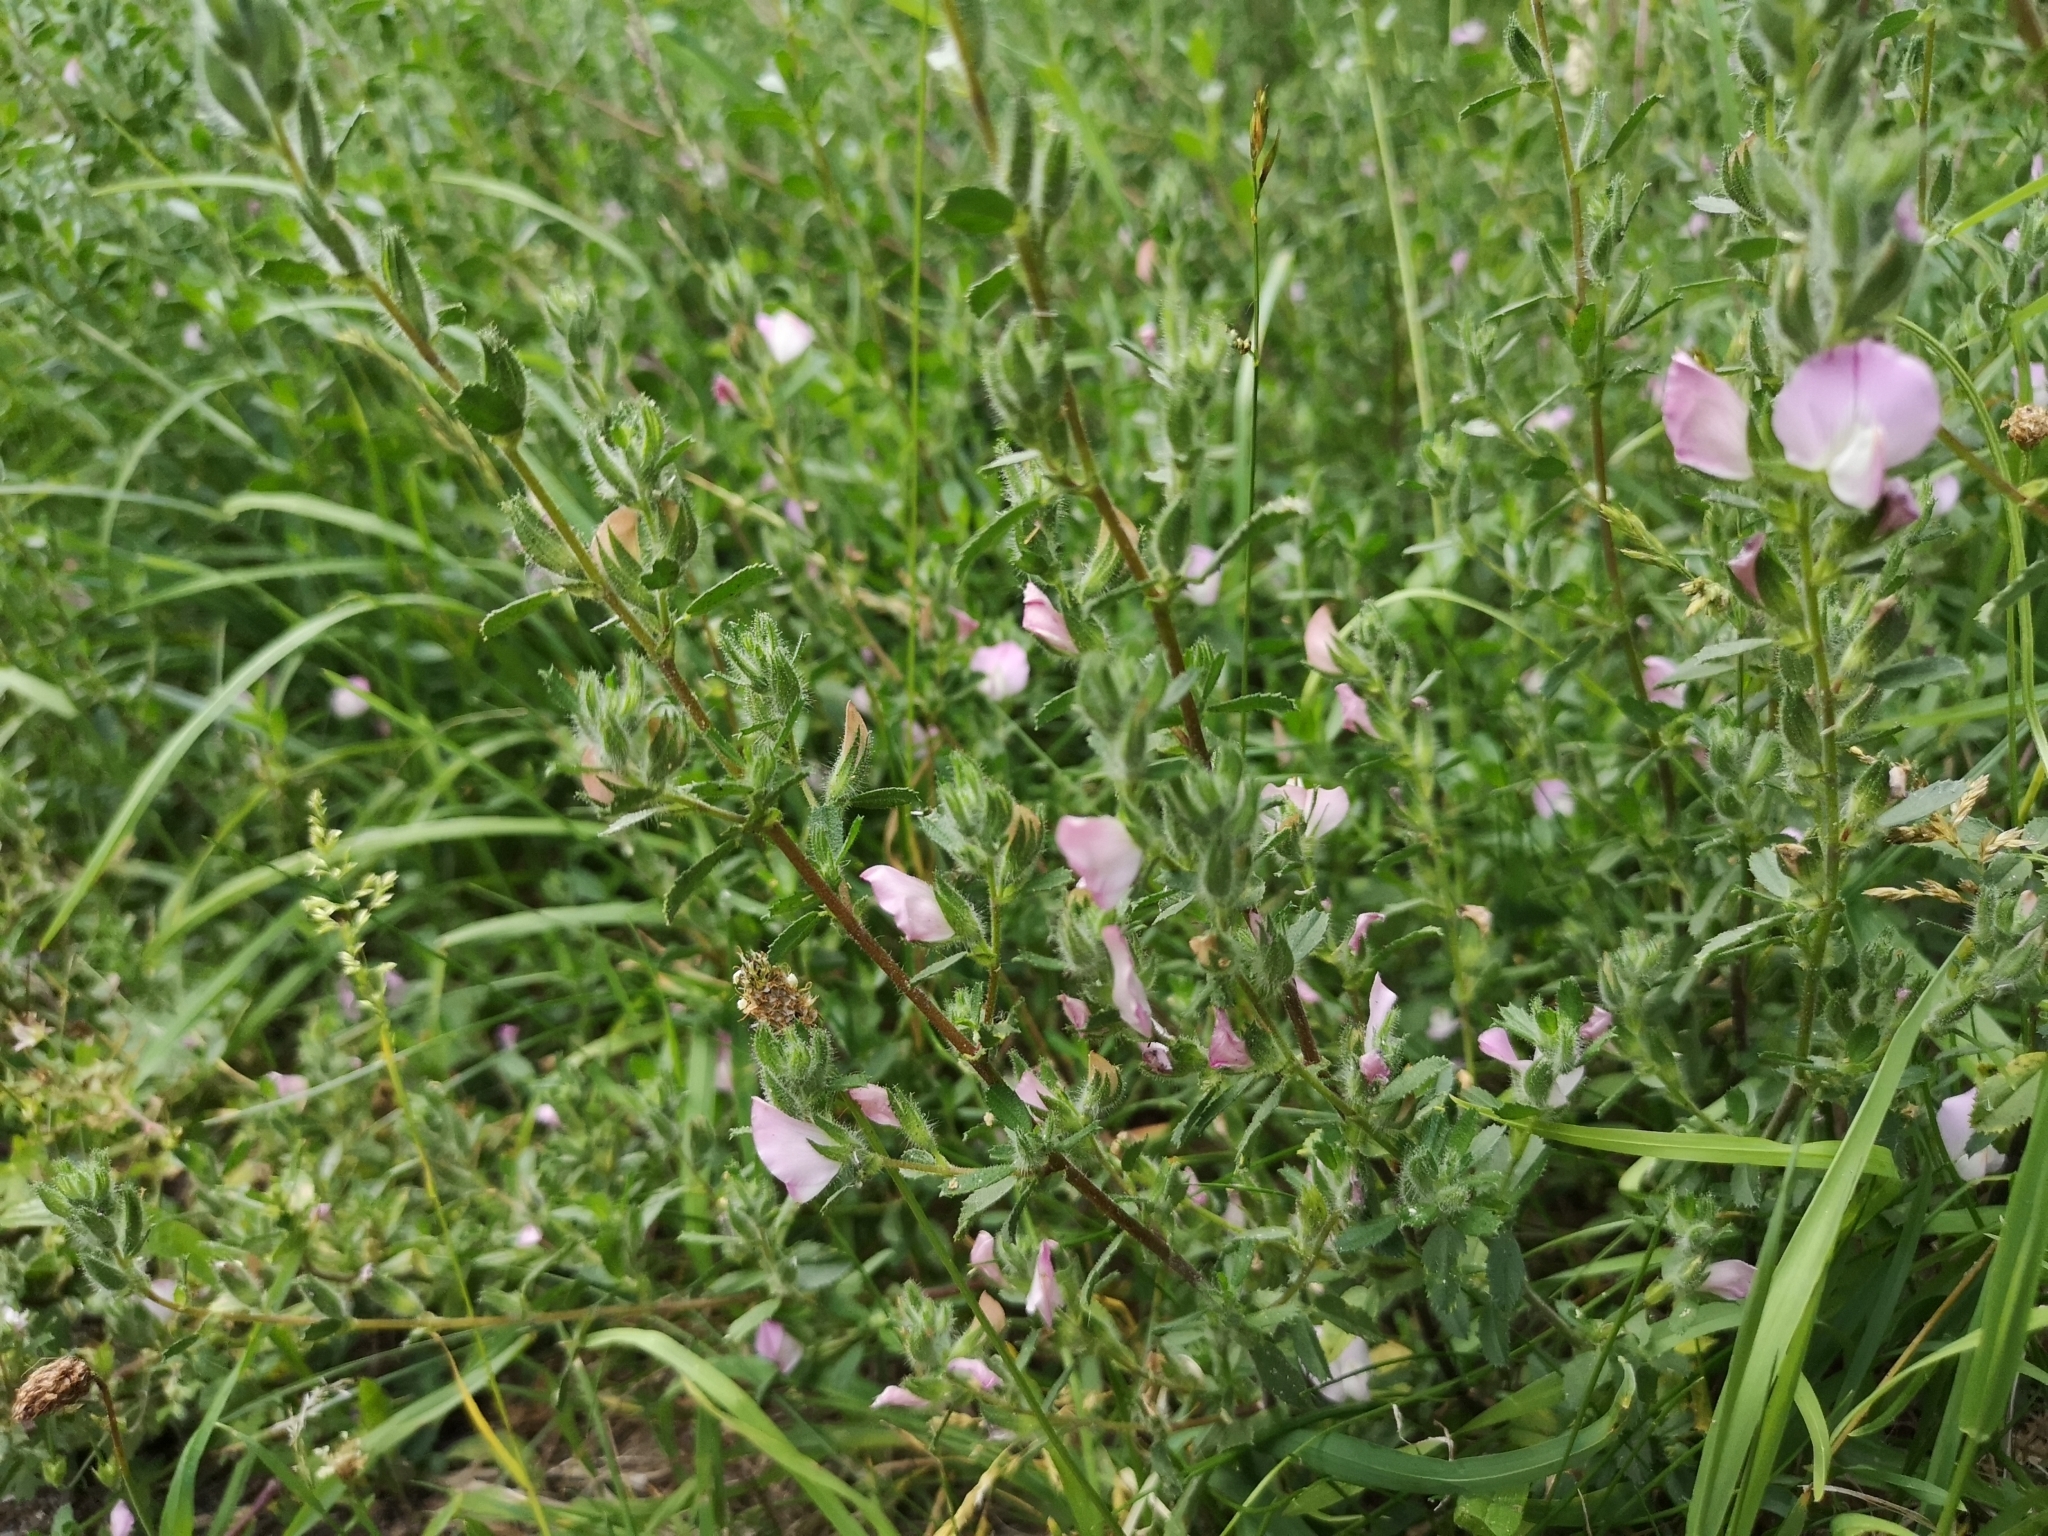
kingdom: Plantae
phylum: Tracheophyta
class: Magnoliopsida
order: Fabales
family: Fabaceae
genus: Ononis
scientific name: Ononis spinosa
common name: Spiny restharrow
